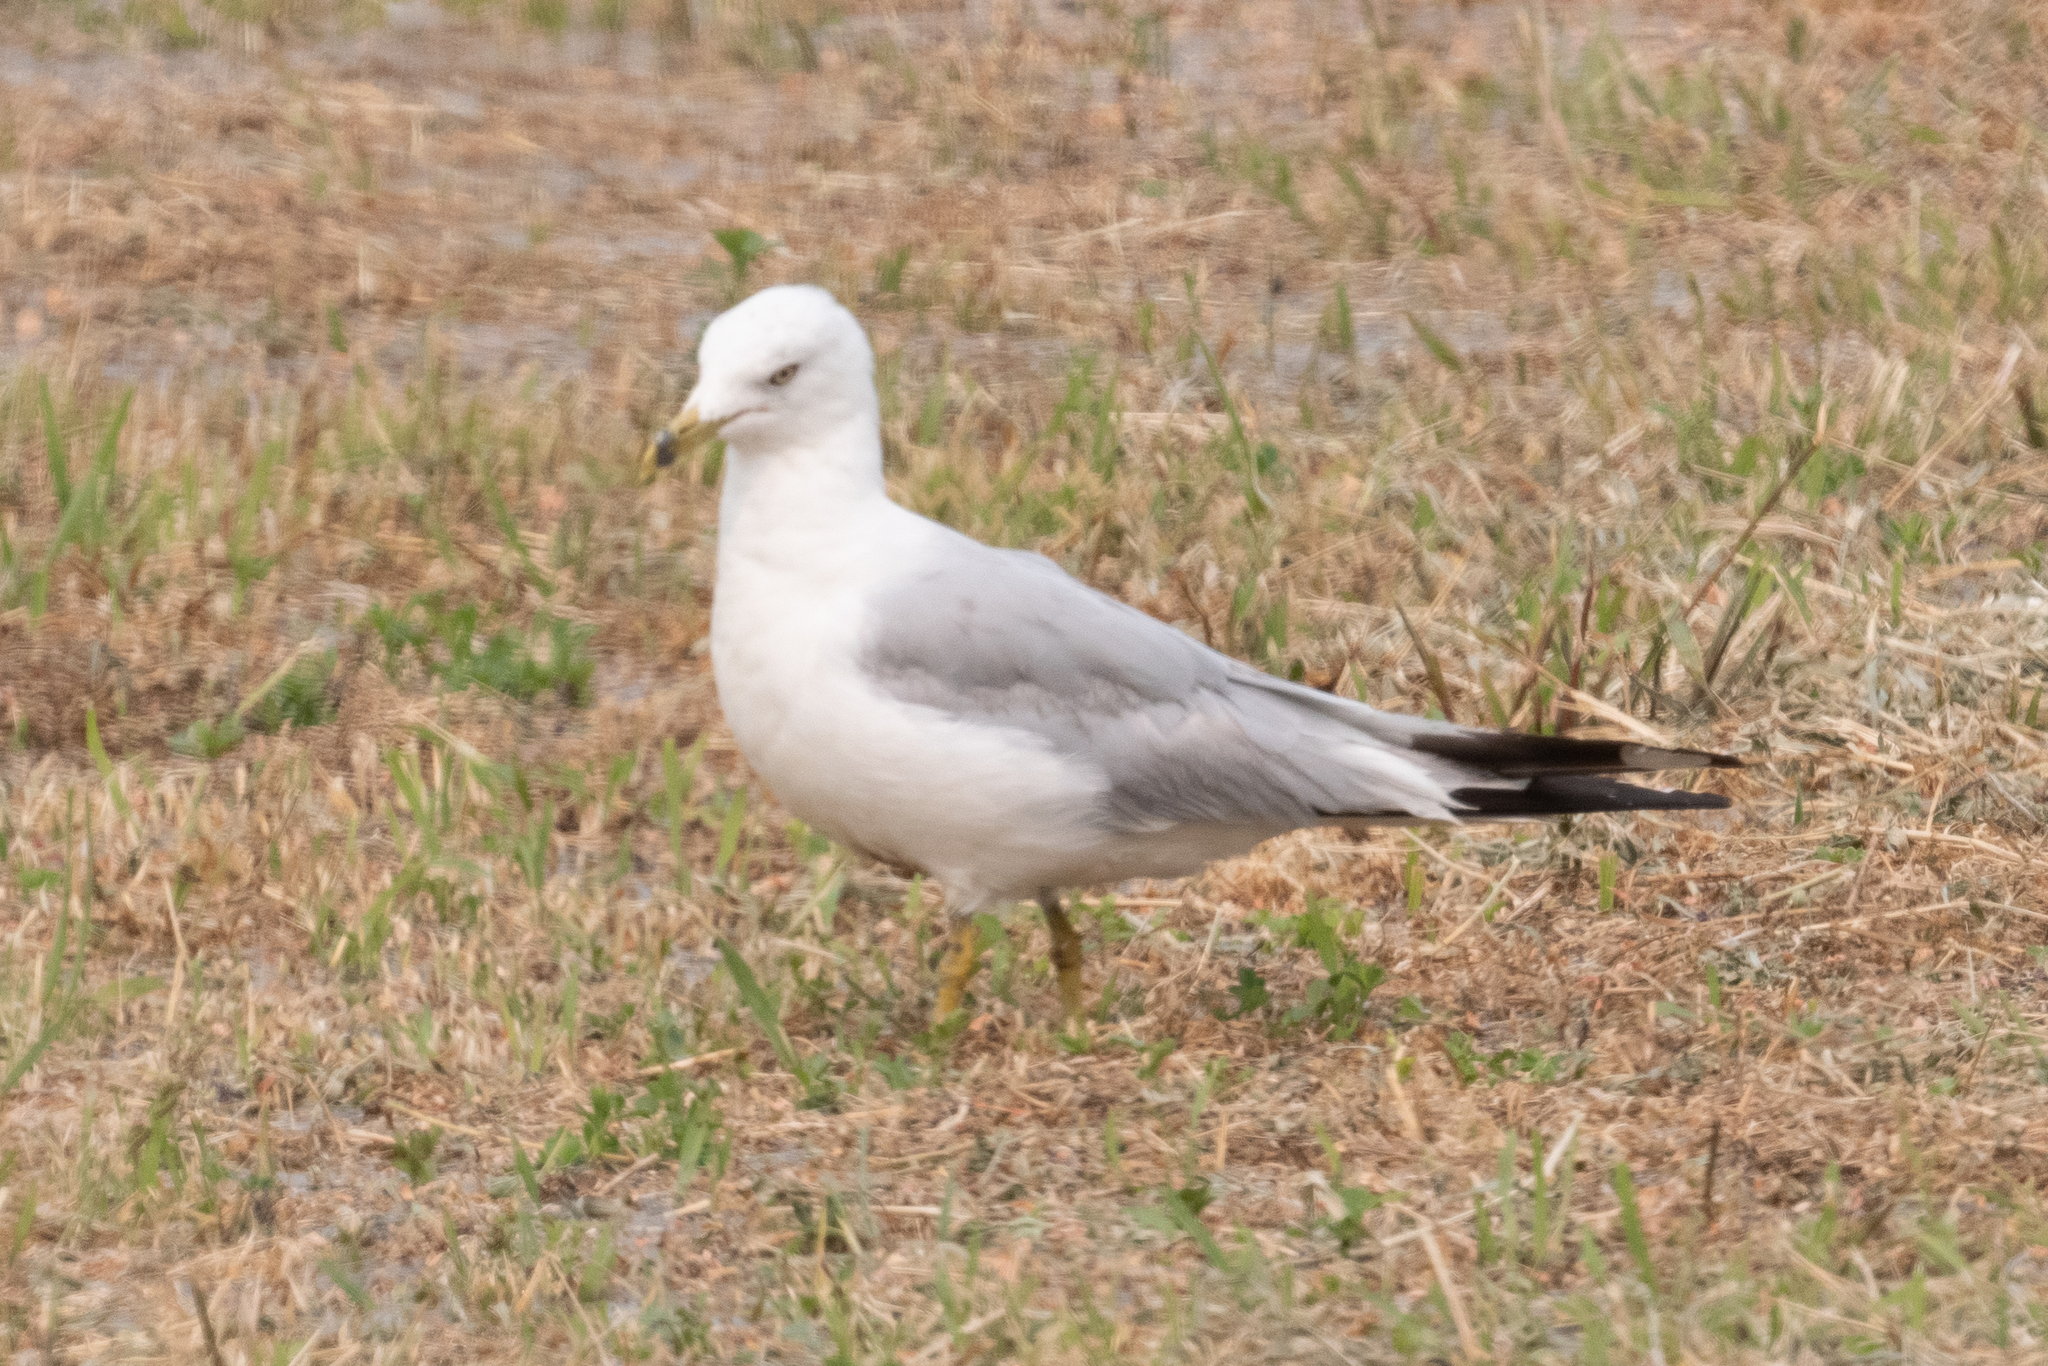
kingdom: Animalia
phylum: Chordata
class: Aves
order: Charadriiformes
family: Laridae
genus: Larus
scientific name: Larus delawarensis
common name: Ring-billed gull
